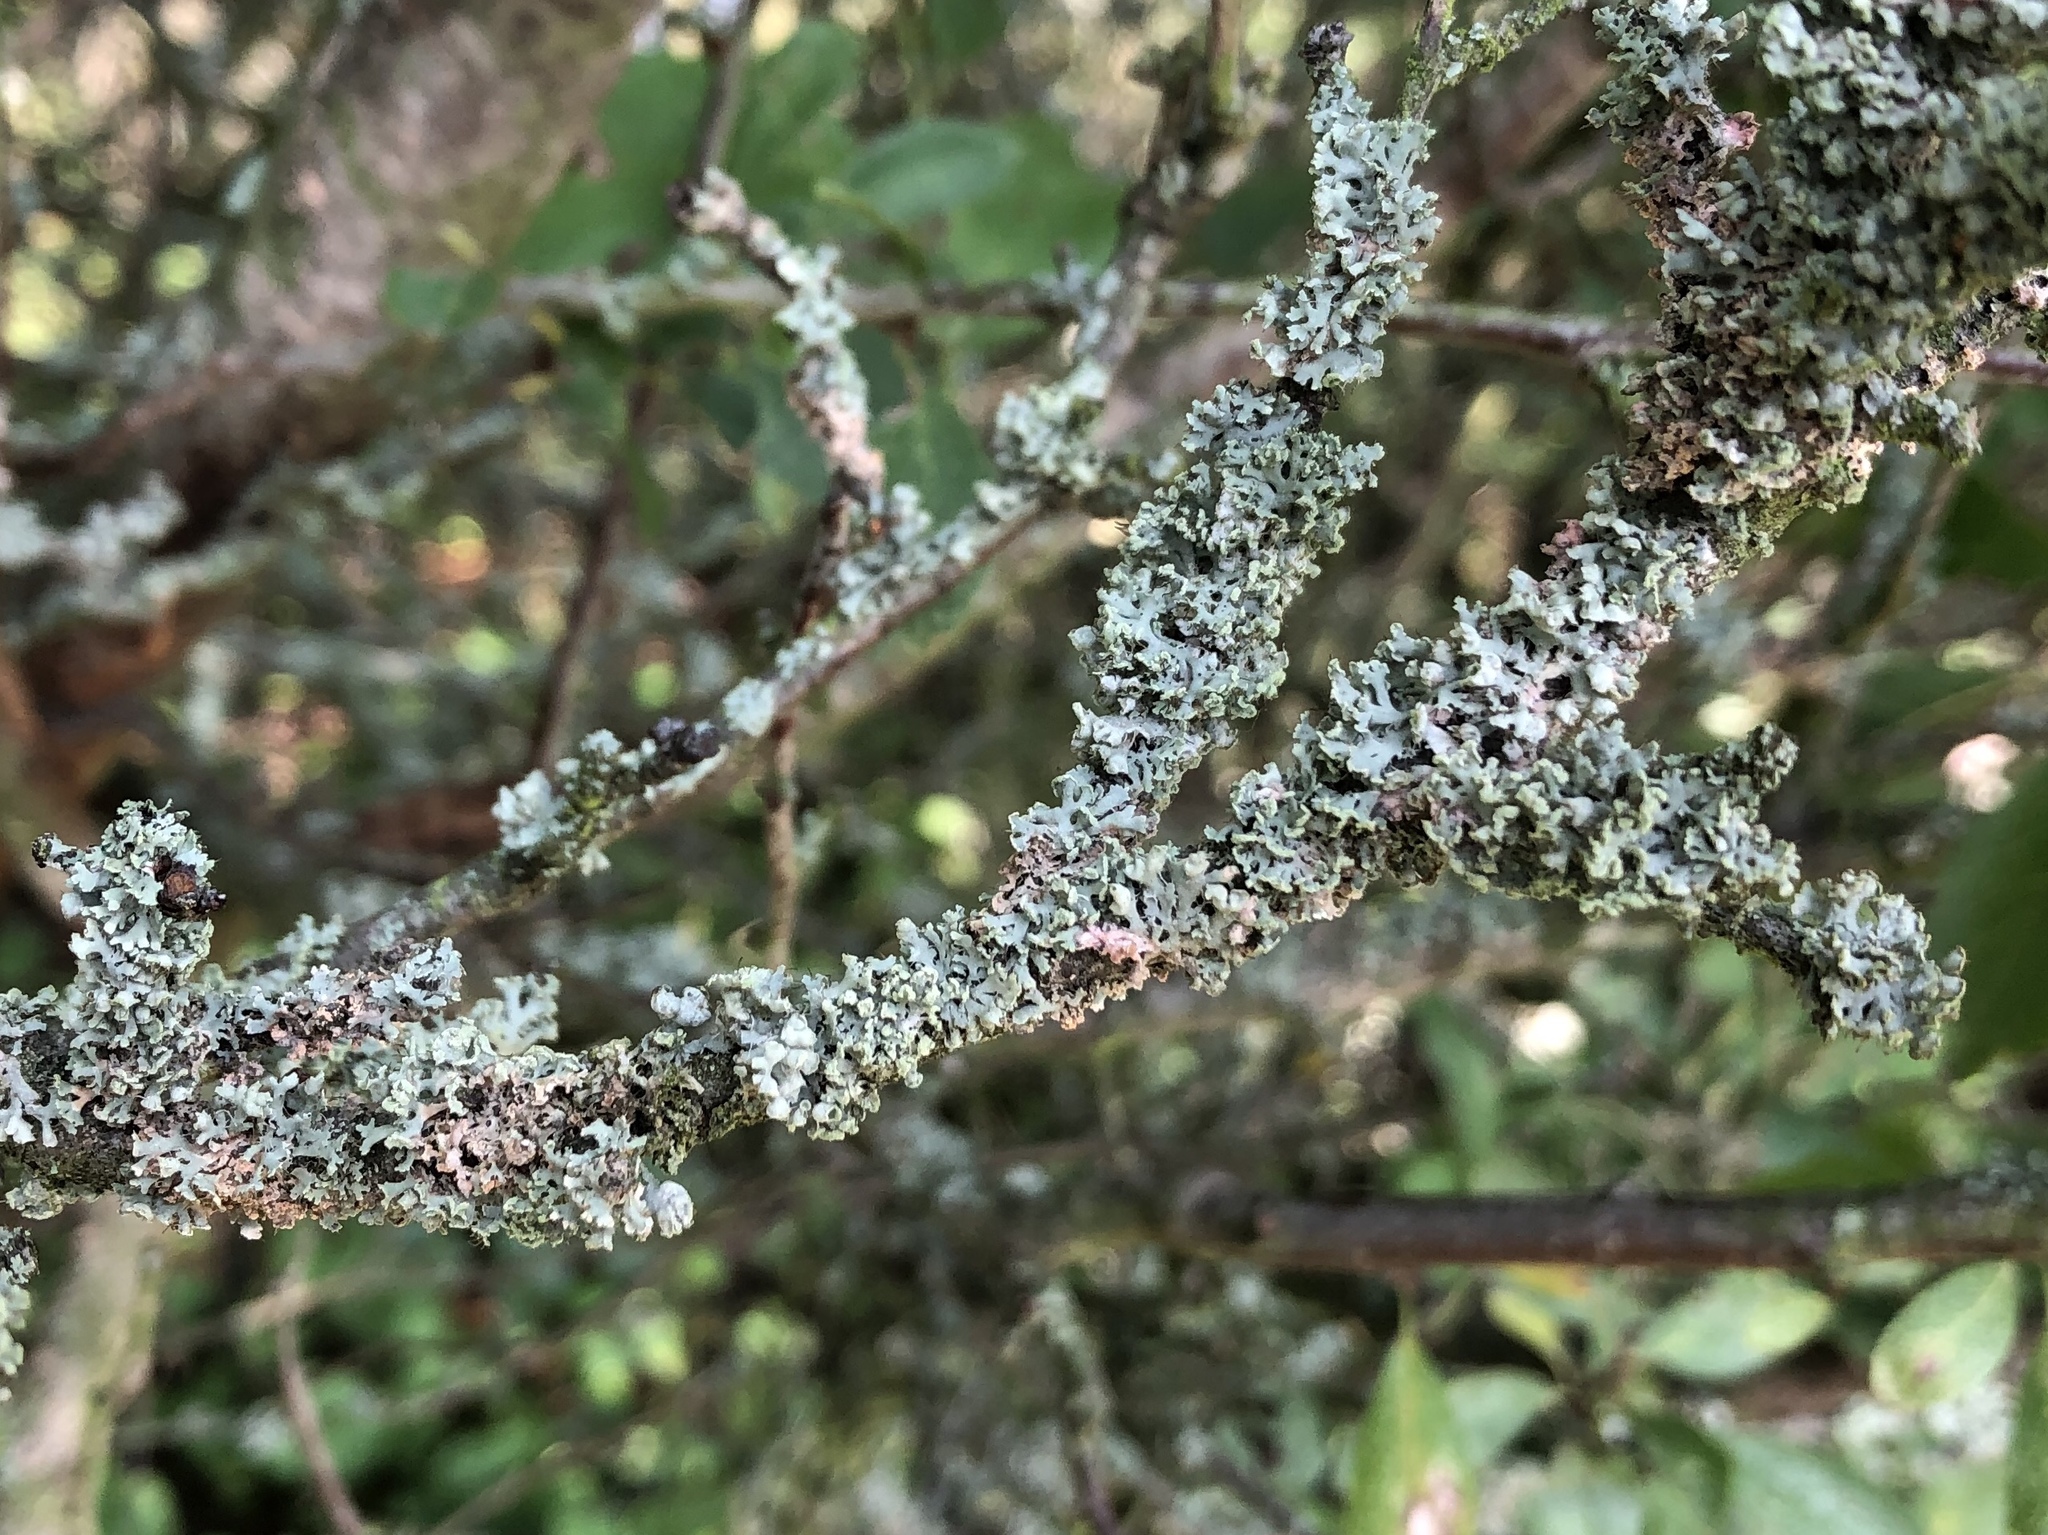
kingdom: Fungi
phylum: Ascomycota
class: Lecanoromycetes
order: Lecanorales
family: Parmeliaceae
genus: Hypogymnia
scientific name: Hypogymnia physodes
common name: Dark crottle
